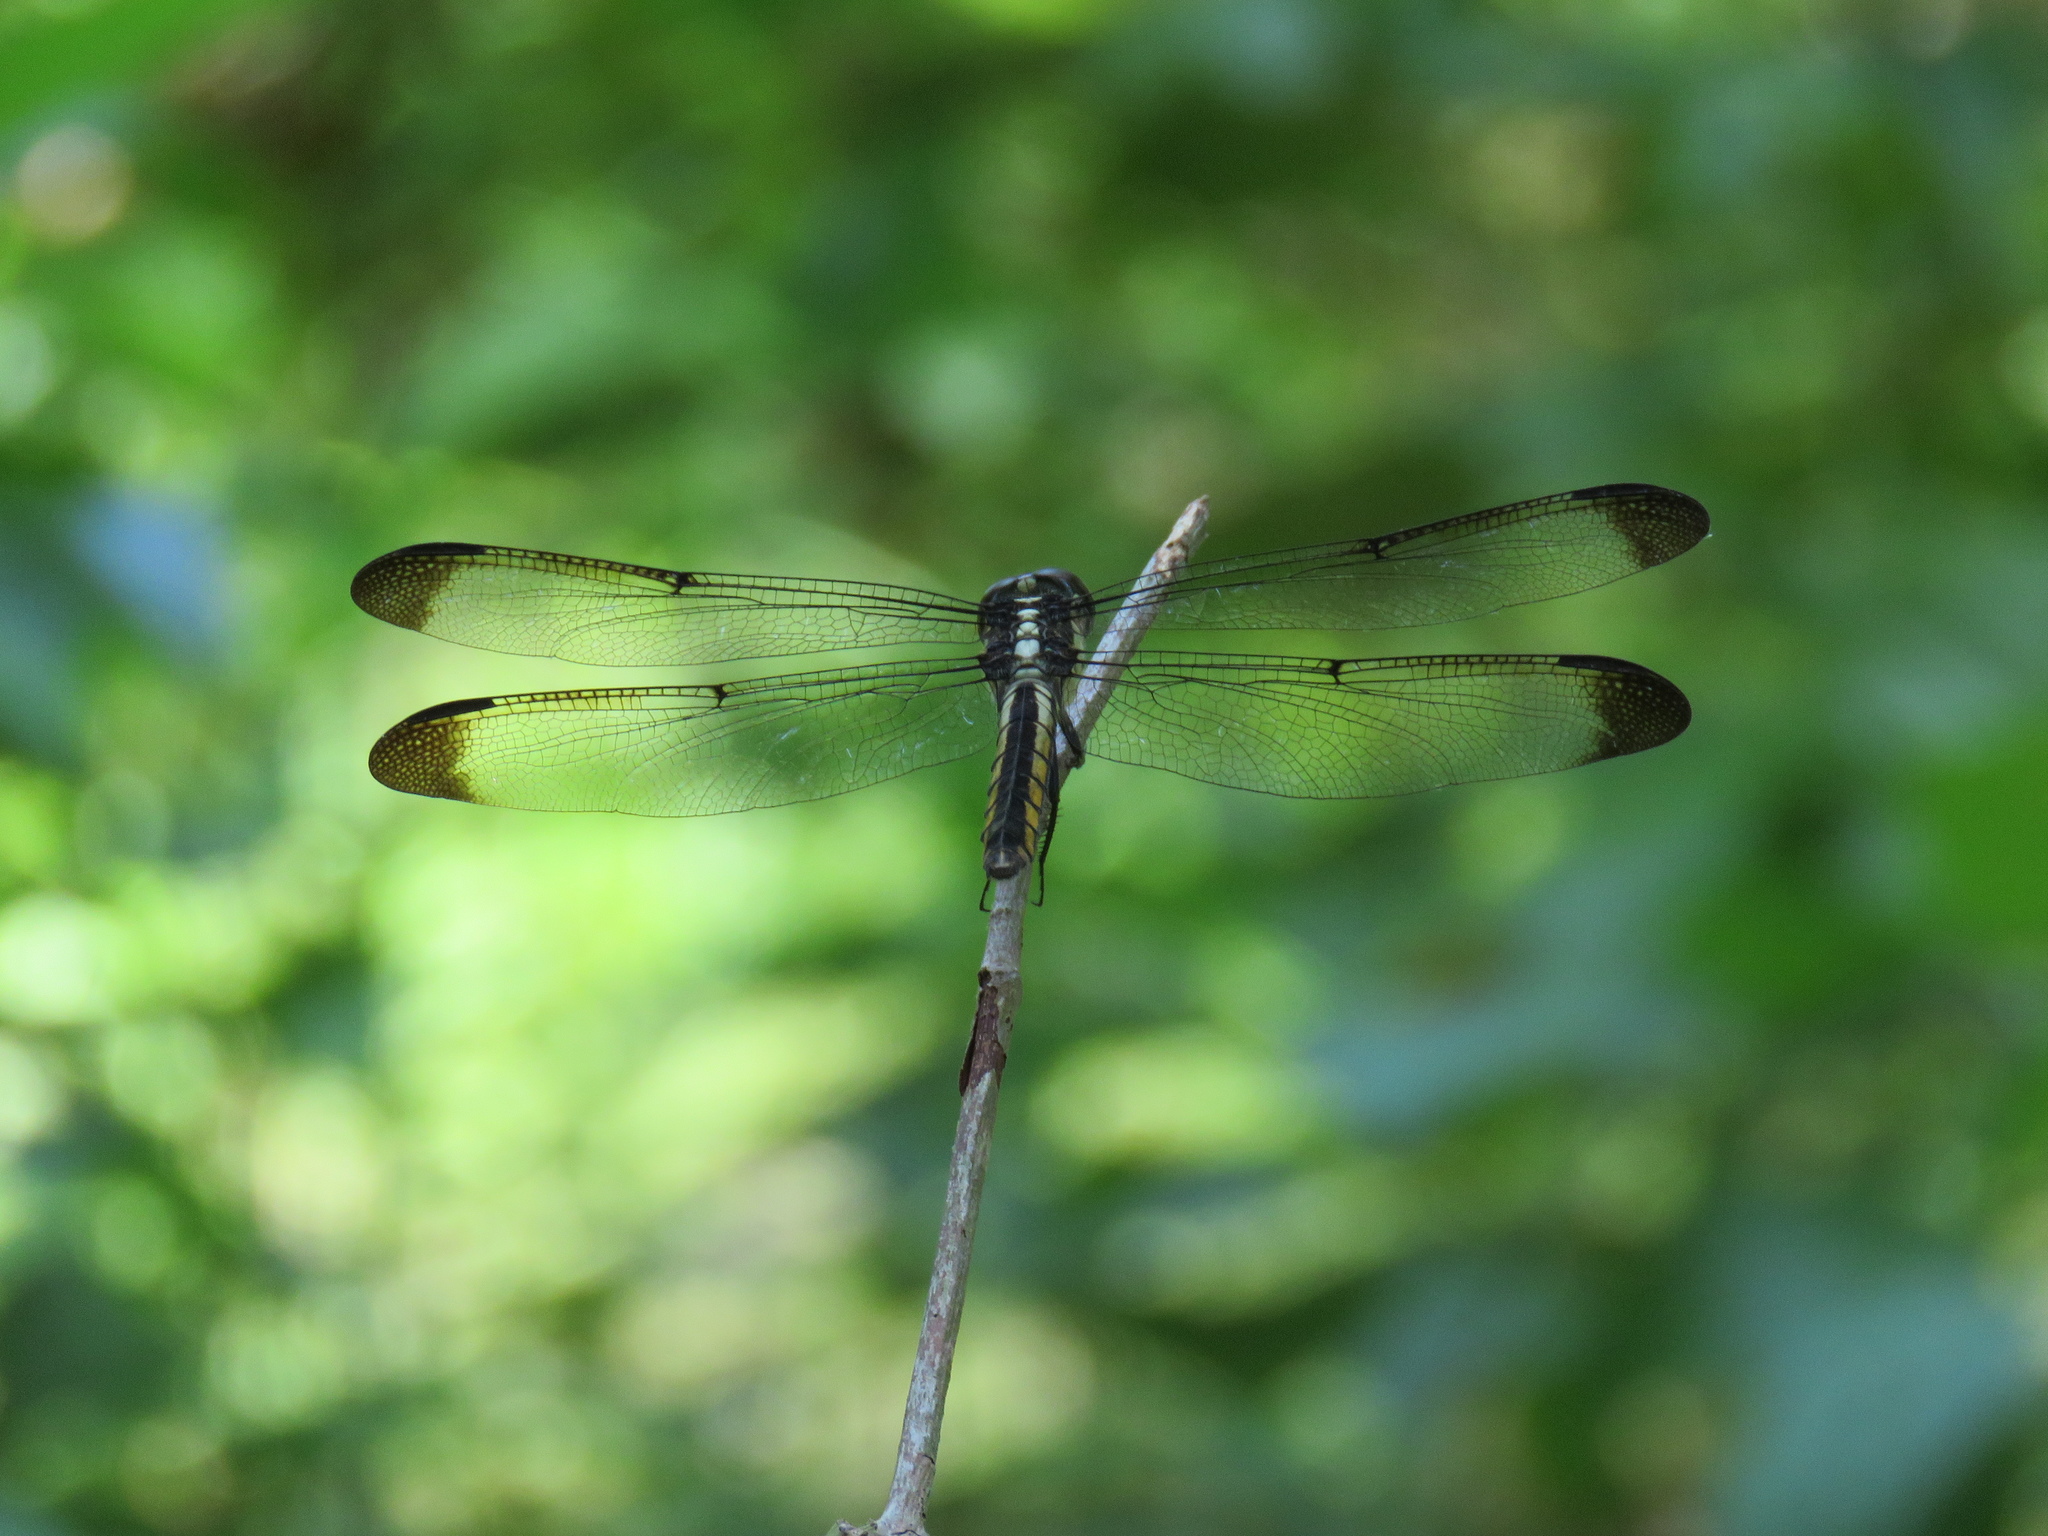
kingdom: Animalia
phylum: Arthropoda
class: Insecta
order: Odonata
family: Libellulidae
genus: Libellula
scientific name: Libellula incesta
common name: Slaty skimmer
